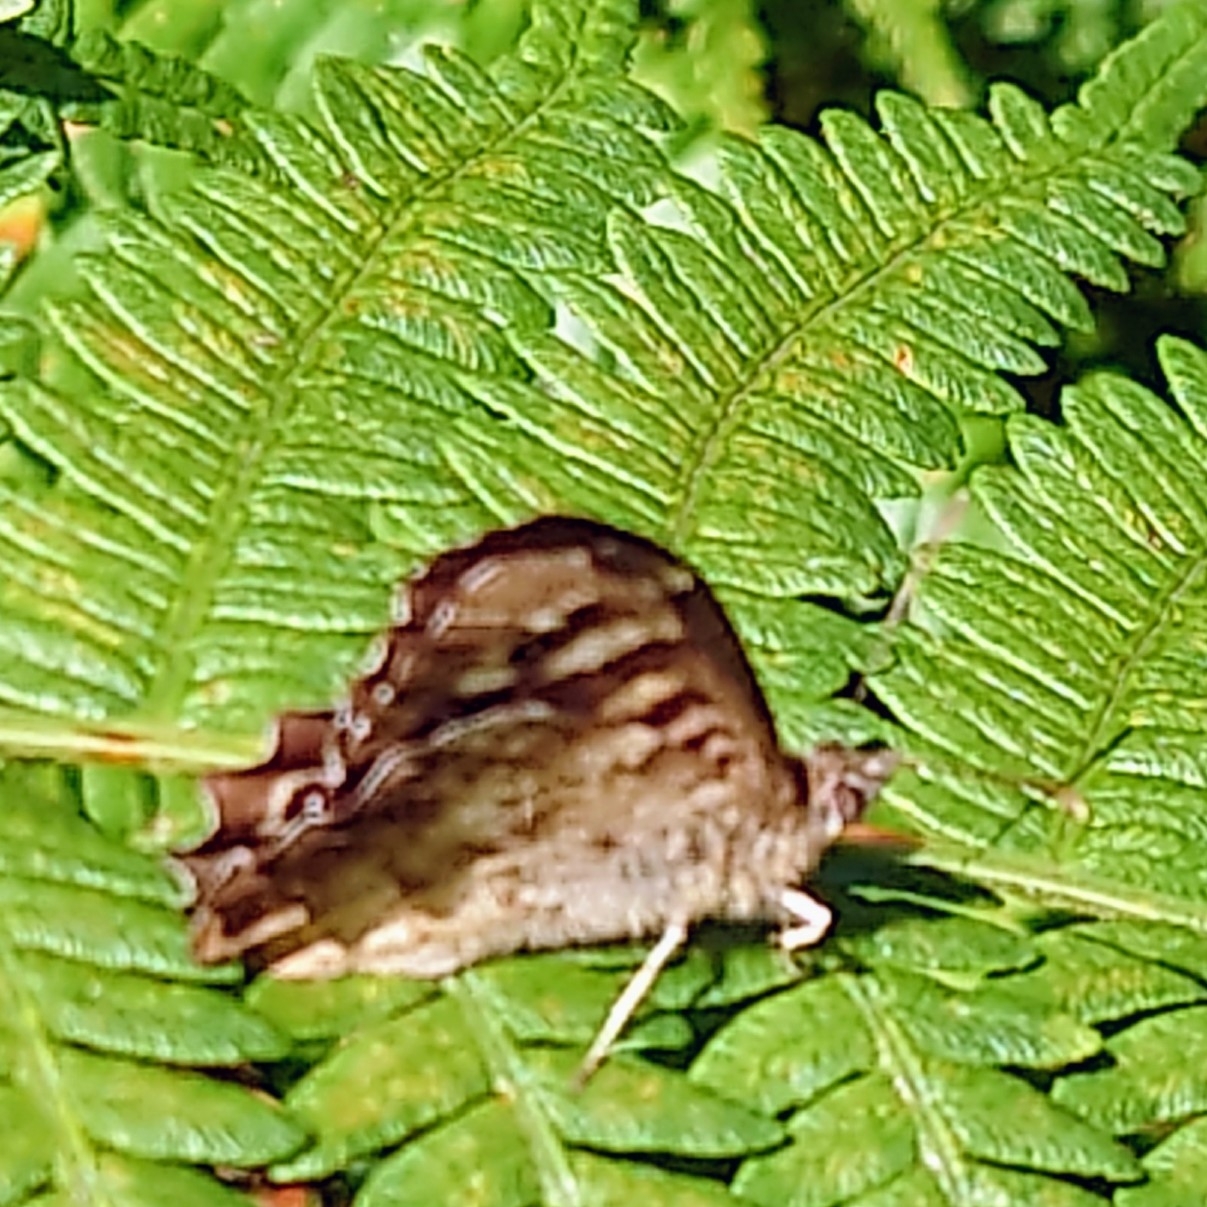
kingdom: Animalia
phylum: Arthropoda
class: Insecta
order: Lepidoptera
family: Nymphalidae
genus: Pararge
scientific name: Pararge aegeria
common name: Speckled wood
